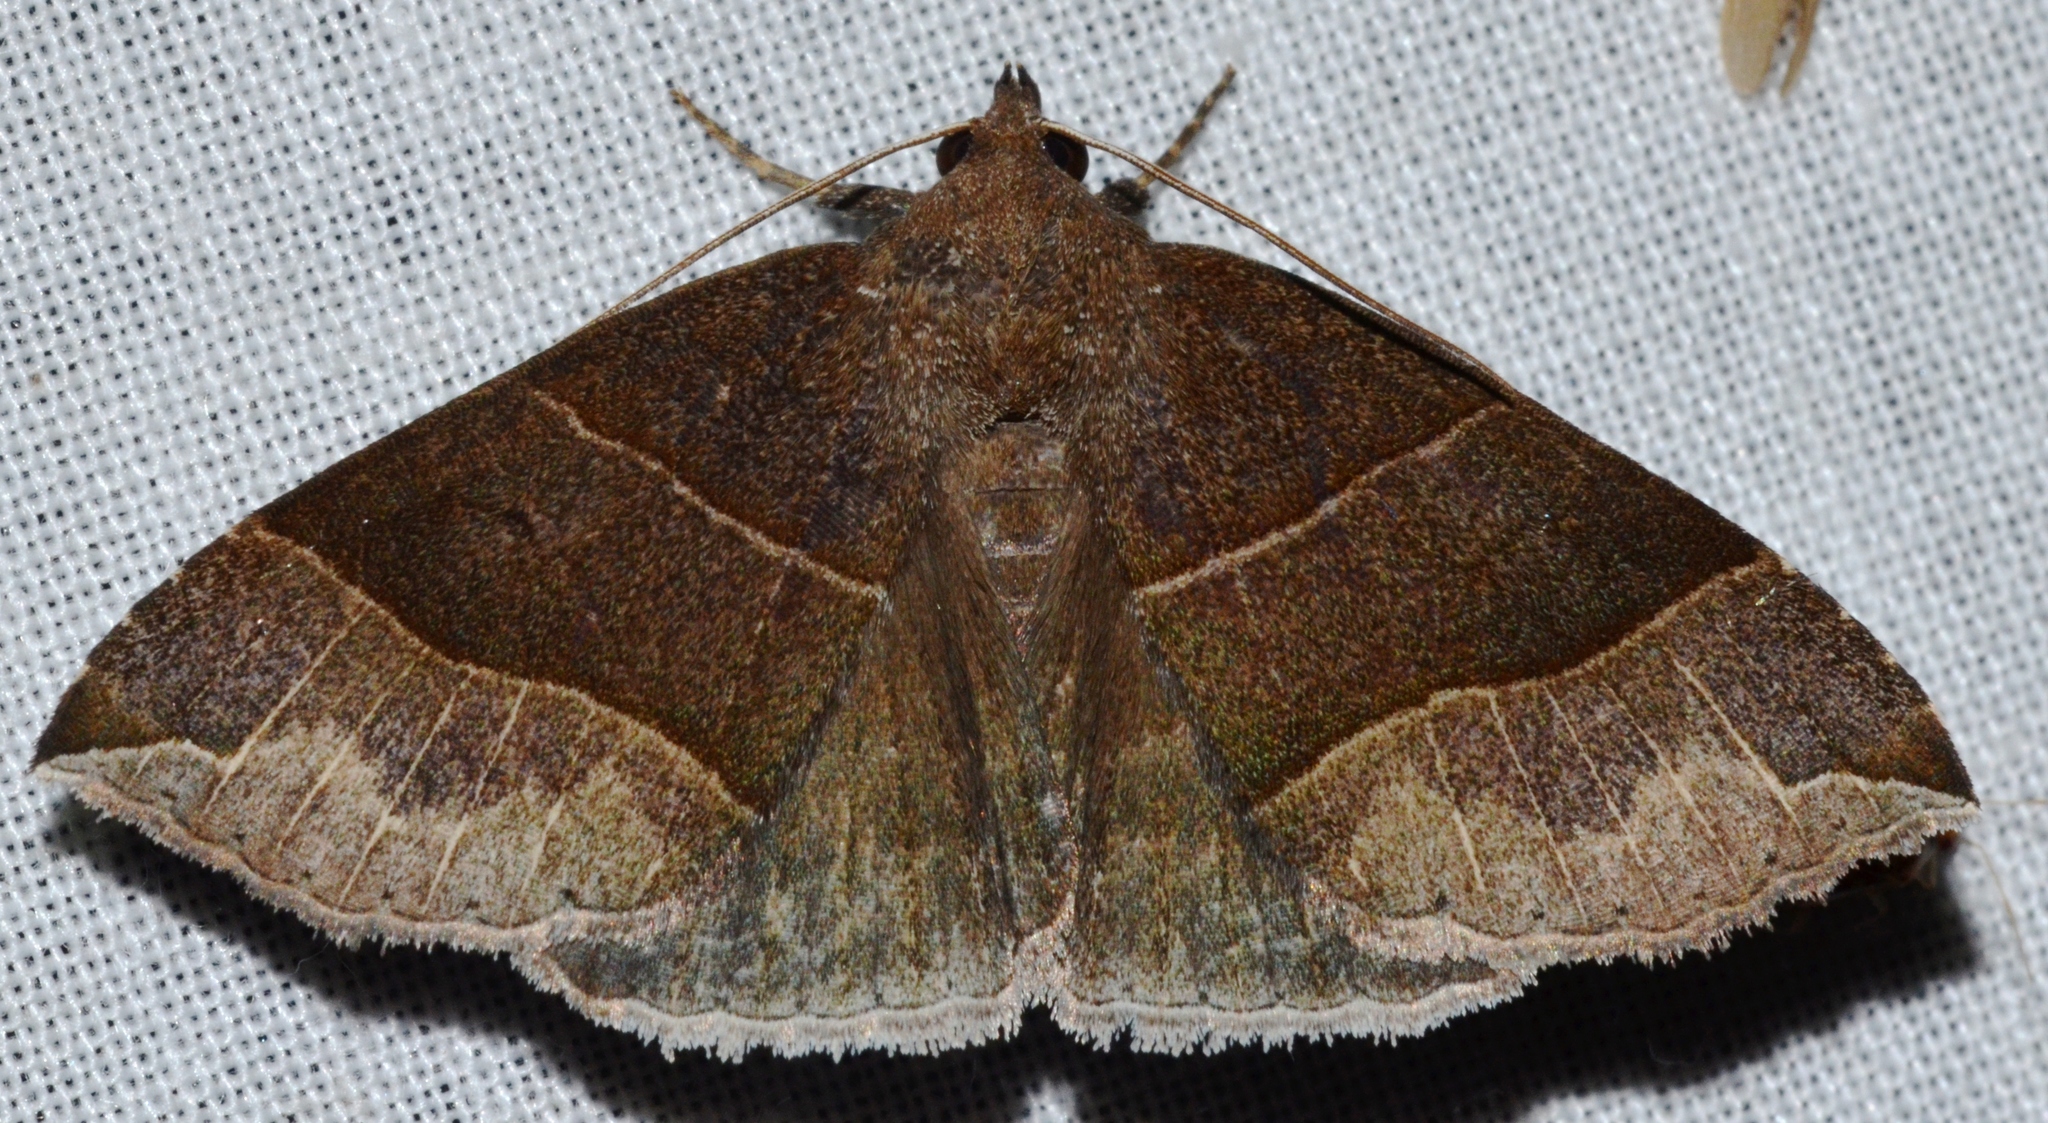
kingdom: Animalia
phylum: Arthropoda
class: Insecta
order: Lepidoptera
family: Erebidae
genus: Parallelia
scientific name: Parallelia bistriaris
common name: Maple looper moth
